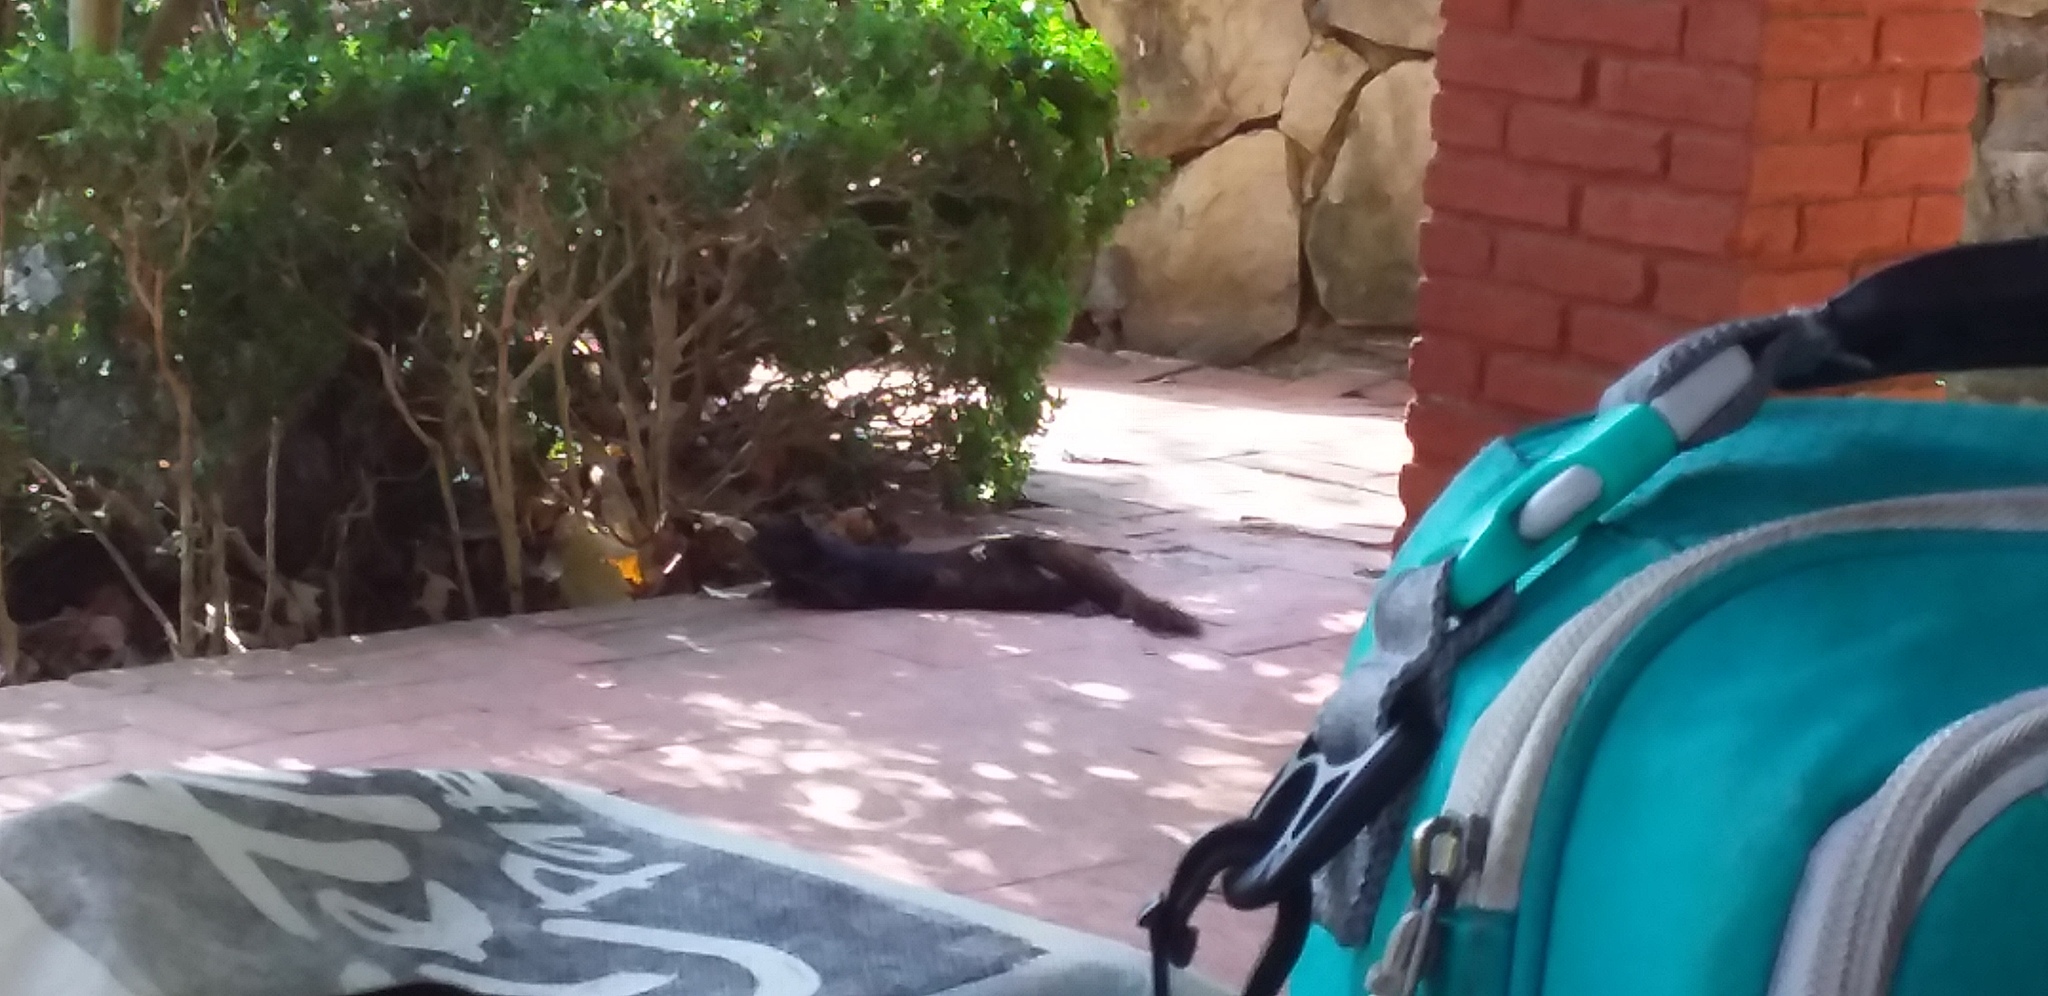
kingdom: Animalia
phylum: Chordata
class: Mammalia
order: Rodentia
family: Sciuridae
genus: Otospermophilus
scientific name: Otospermophilus variegatus
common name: Rock squirrel
